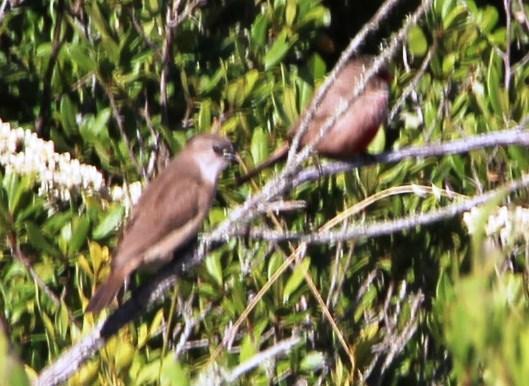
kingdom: Animalia
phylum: Chordata
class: Aves
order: Passeriformes
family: Estrildidae
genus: Estrilda
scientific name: Estrilda astrild
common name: Common waxbill
